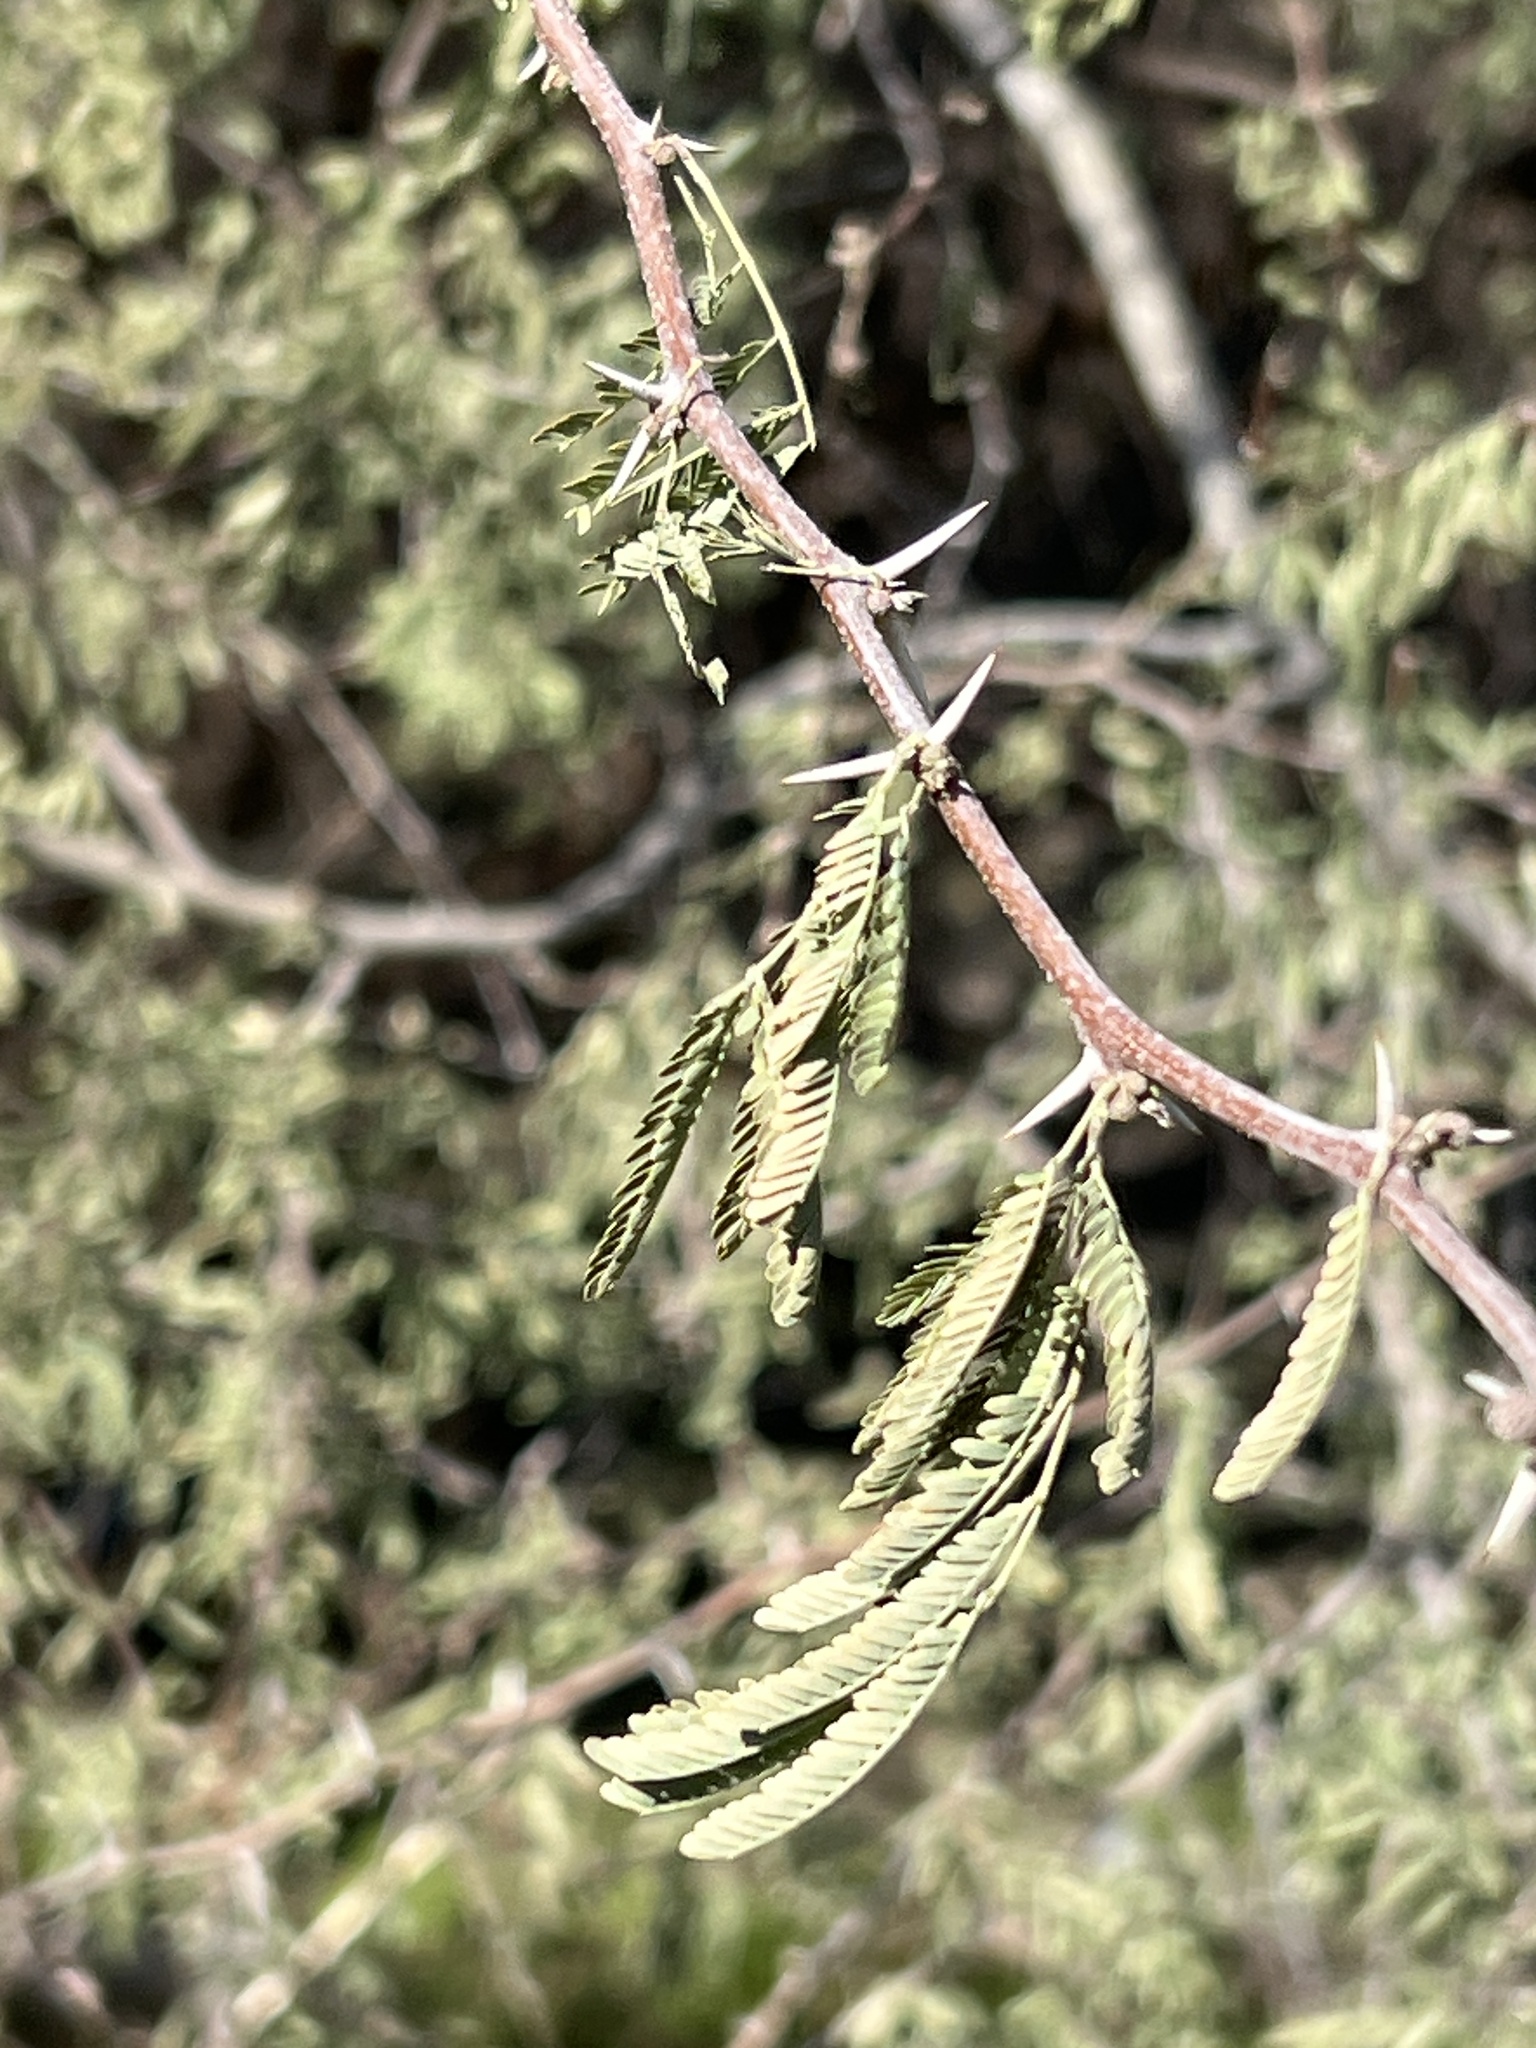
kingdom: Plantae
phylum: Tracheophyta
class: Magnoliopsida
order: Fabales
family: Fabaceae
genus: Vachellia
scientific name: Vachellia farnesiana
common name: Sweet acacia
